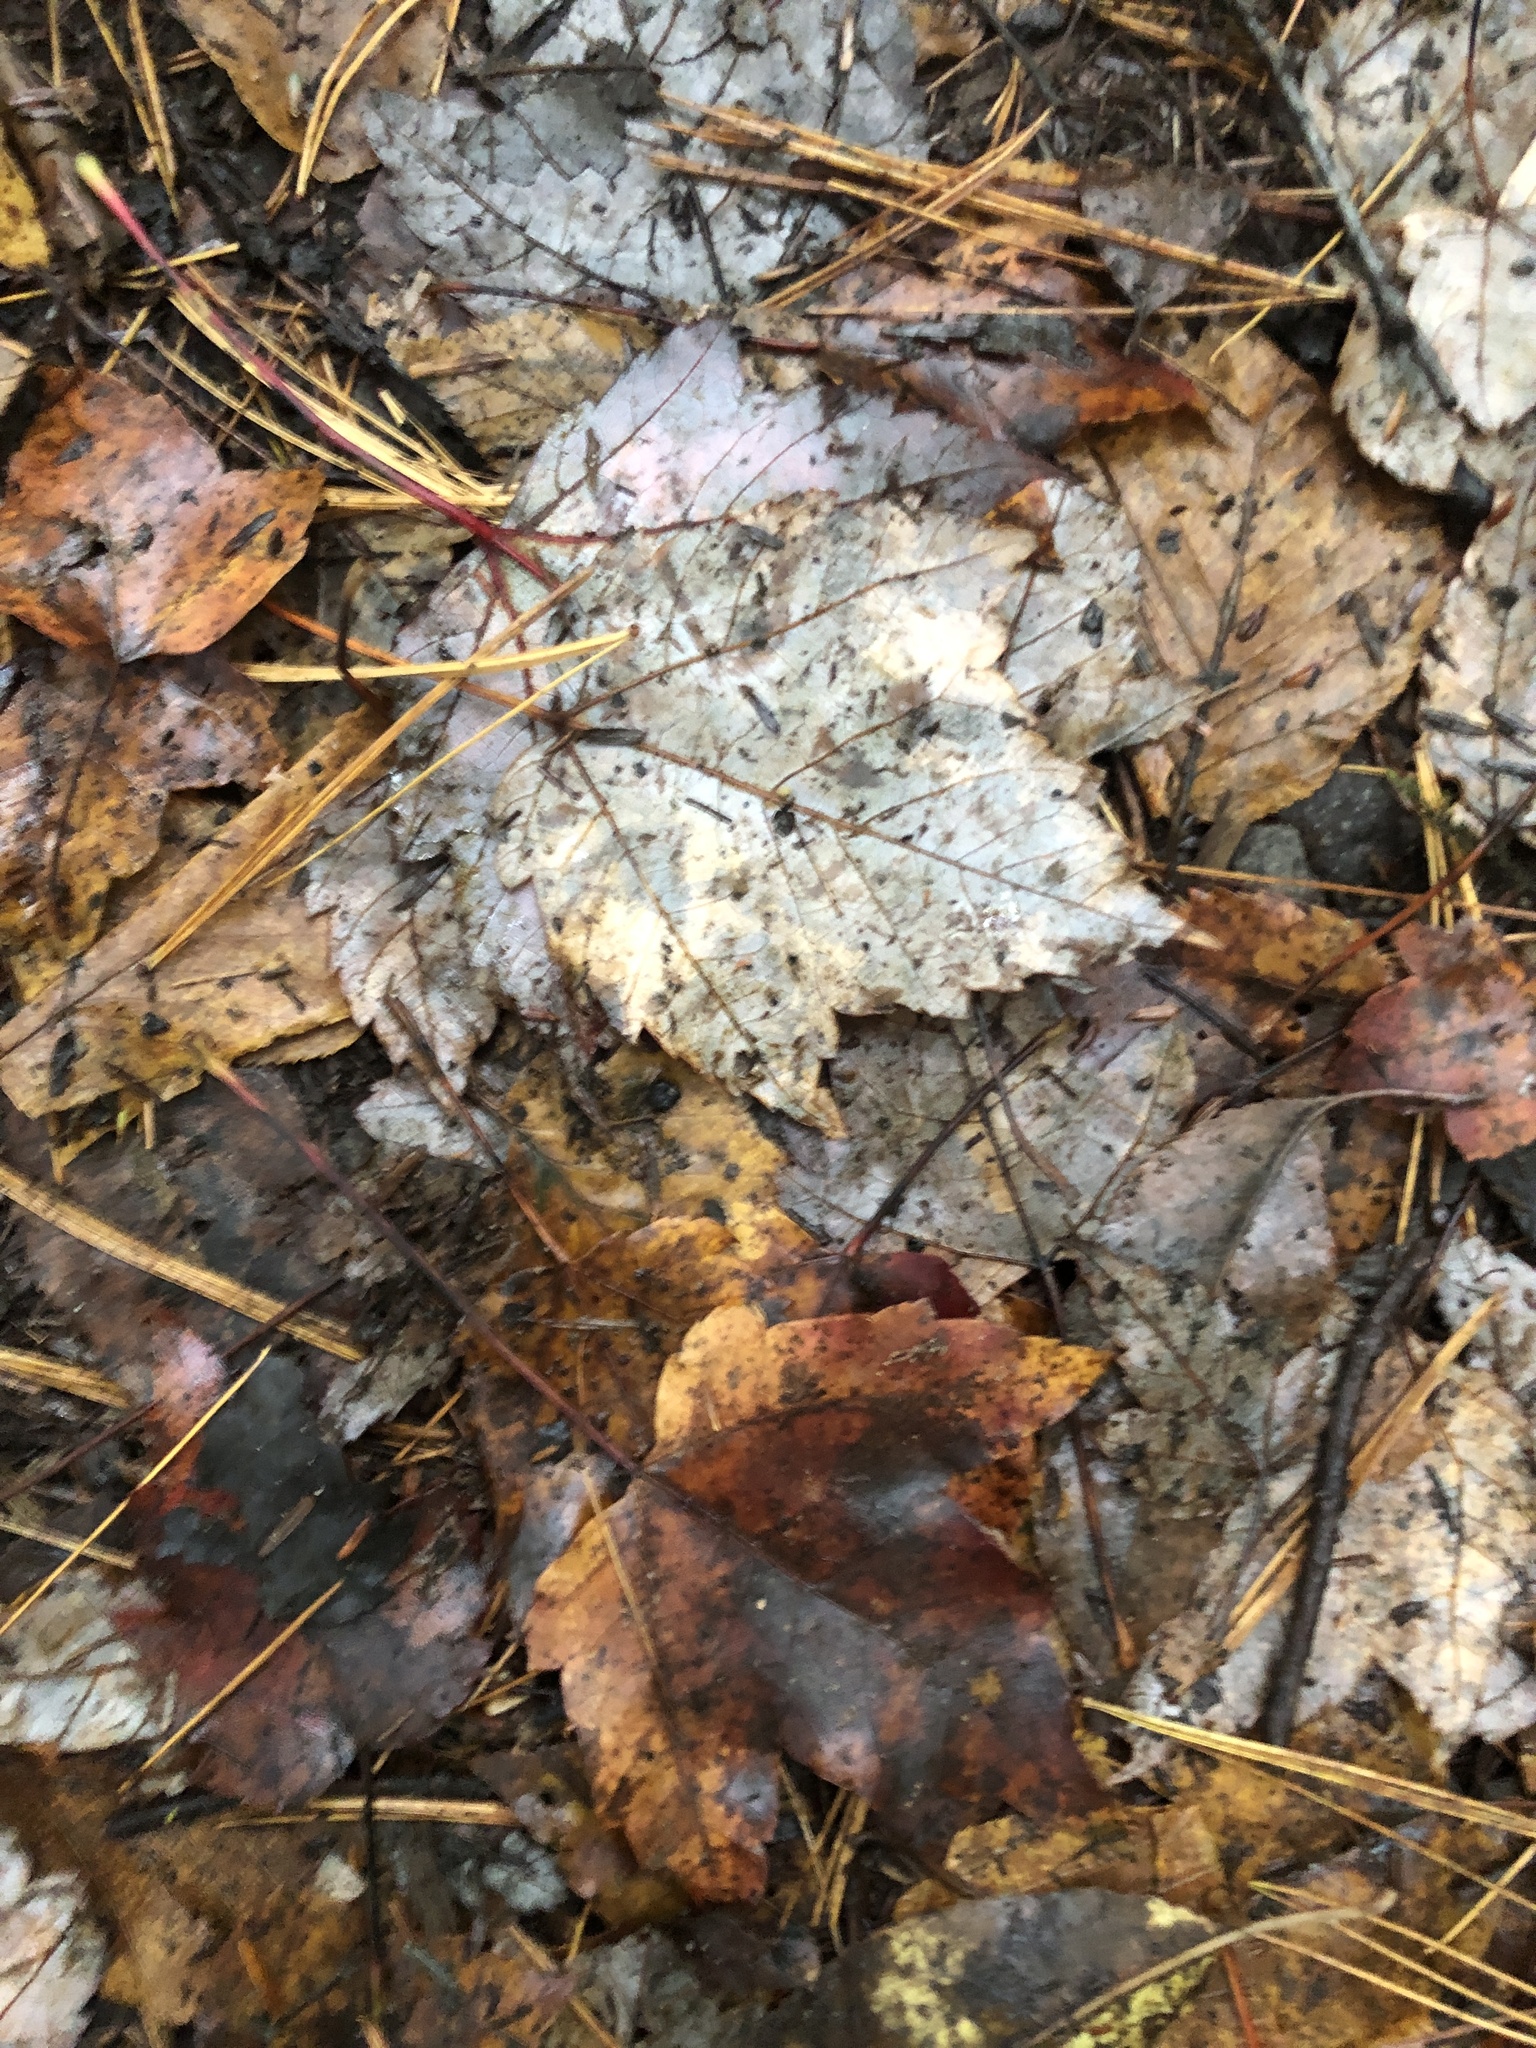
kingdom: Plantae
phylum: Tracheophyta
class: Magnoliopsida
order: Sapindales
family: Sapindaceae
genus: Acer
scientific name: Acer rubrum
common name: Red maple
